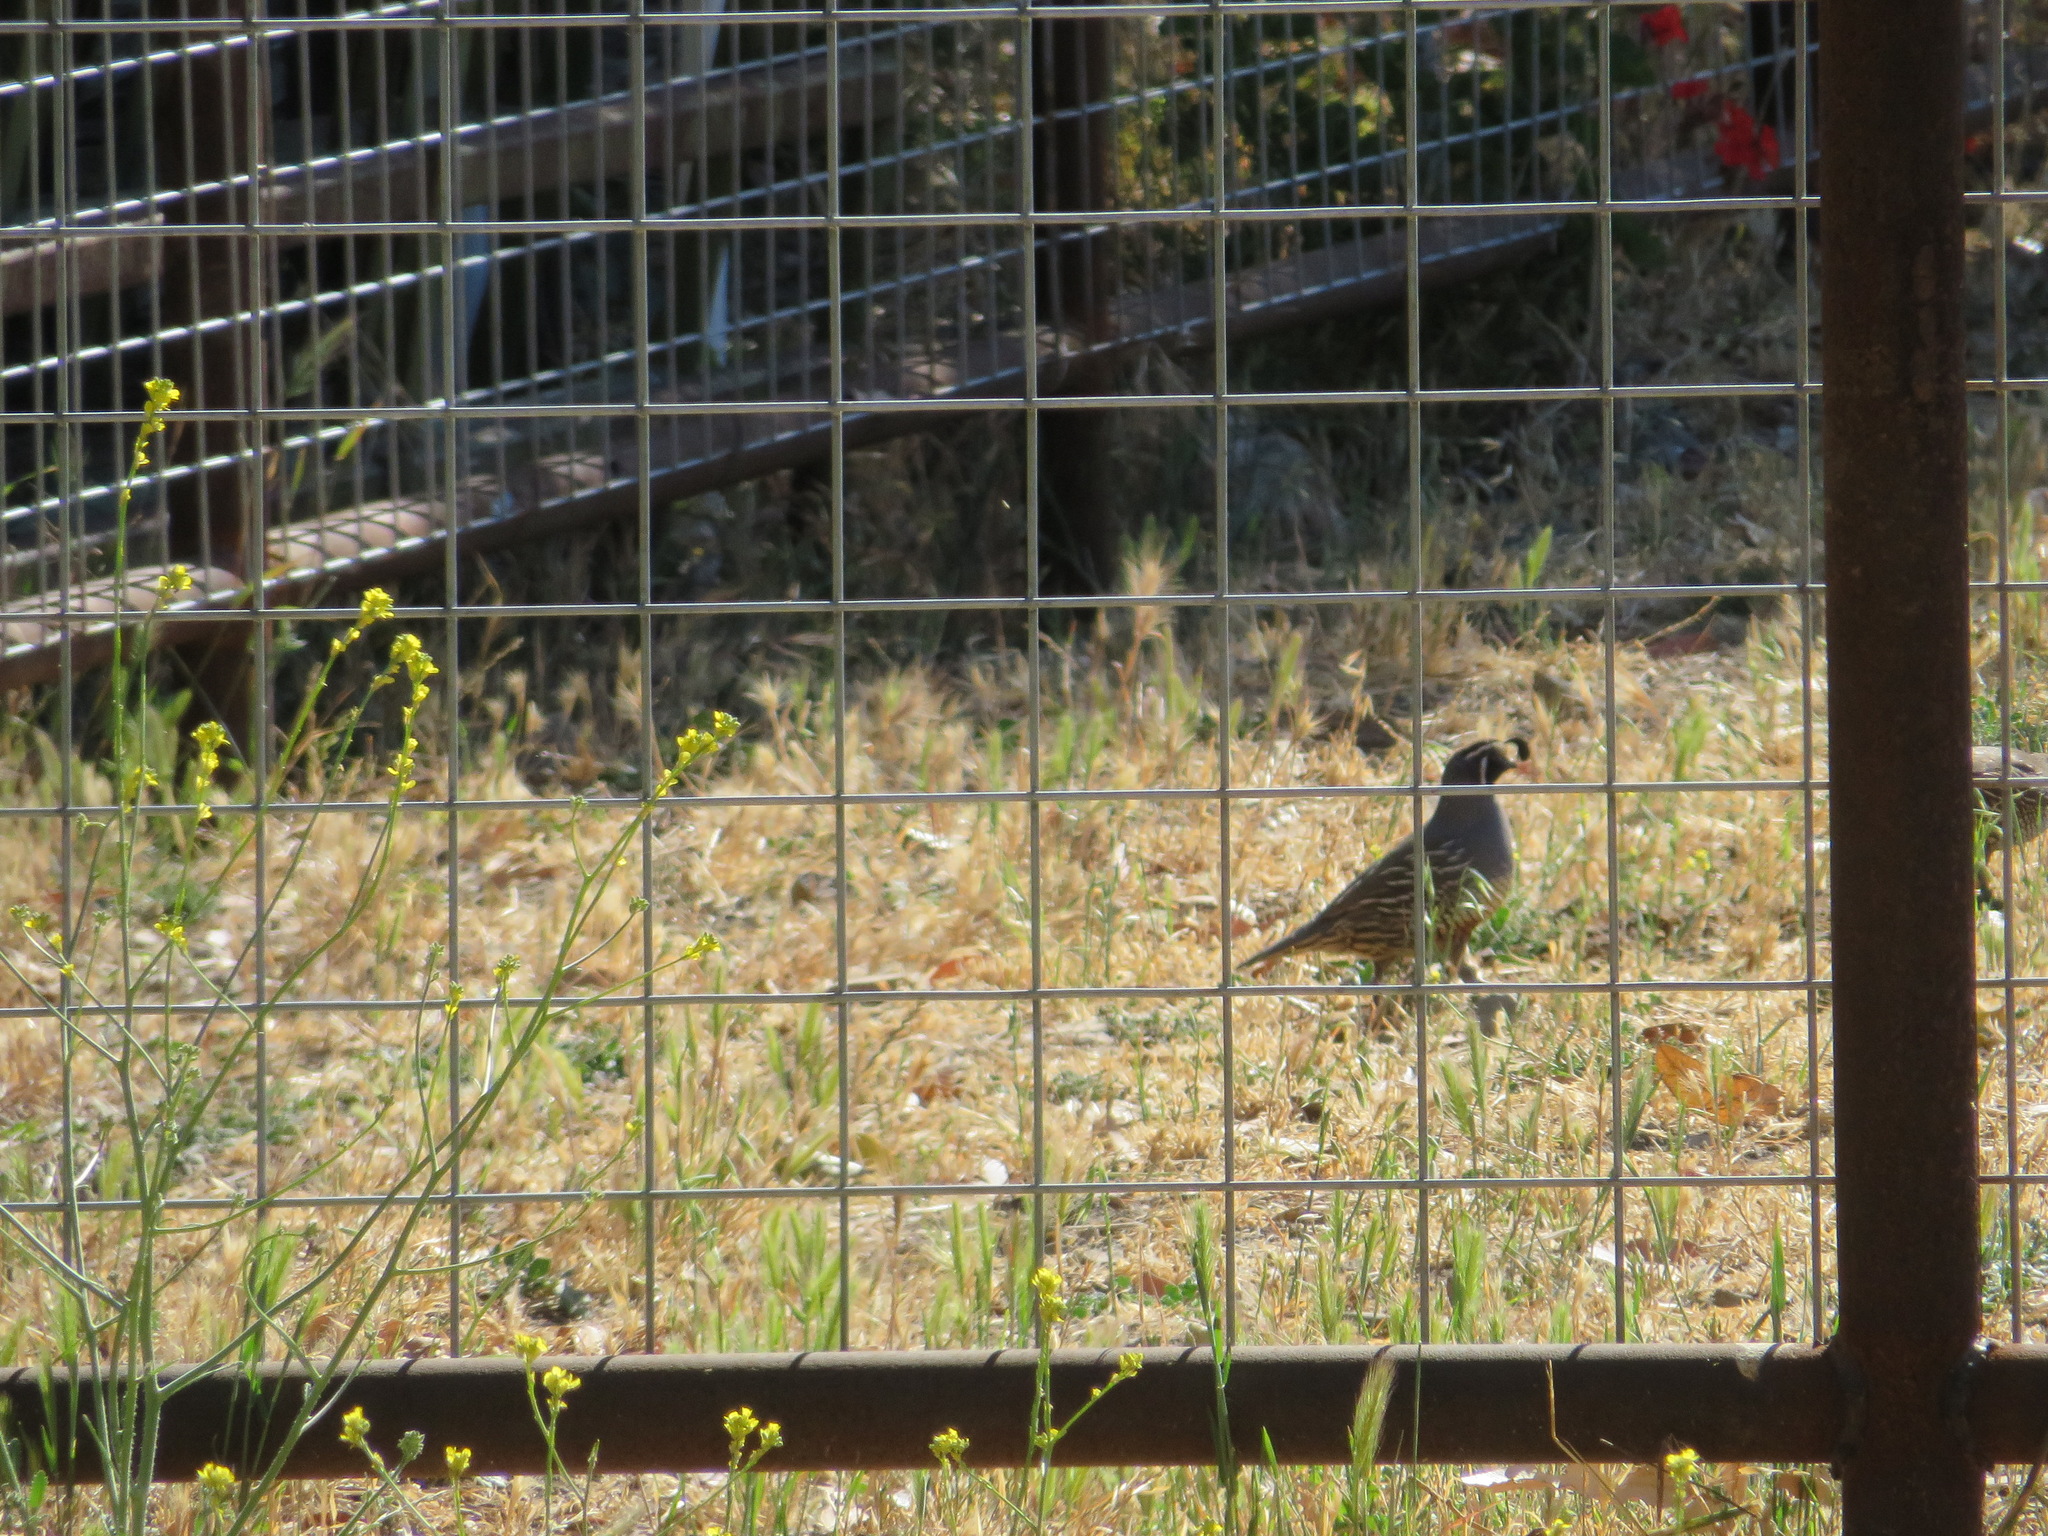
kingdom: Animalia
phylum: Chordata
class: Aves
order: Galliformes
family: Odontophoridae
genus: Callipepla
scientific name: Callipepla californica
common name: California quail
